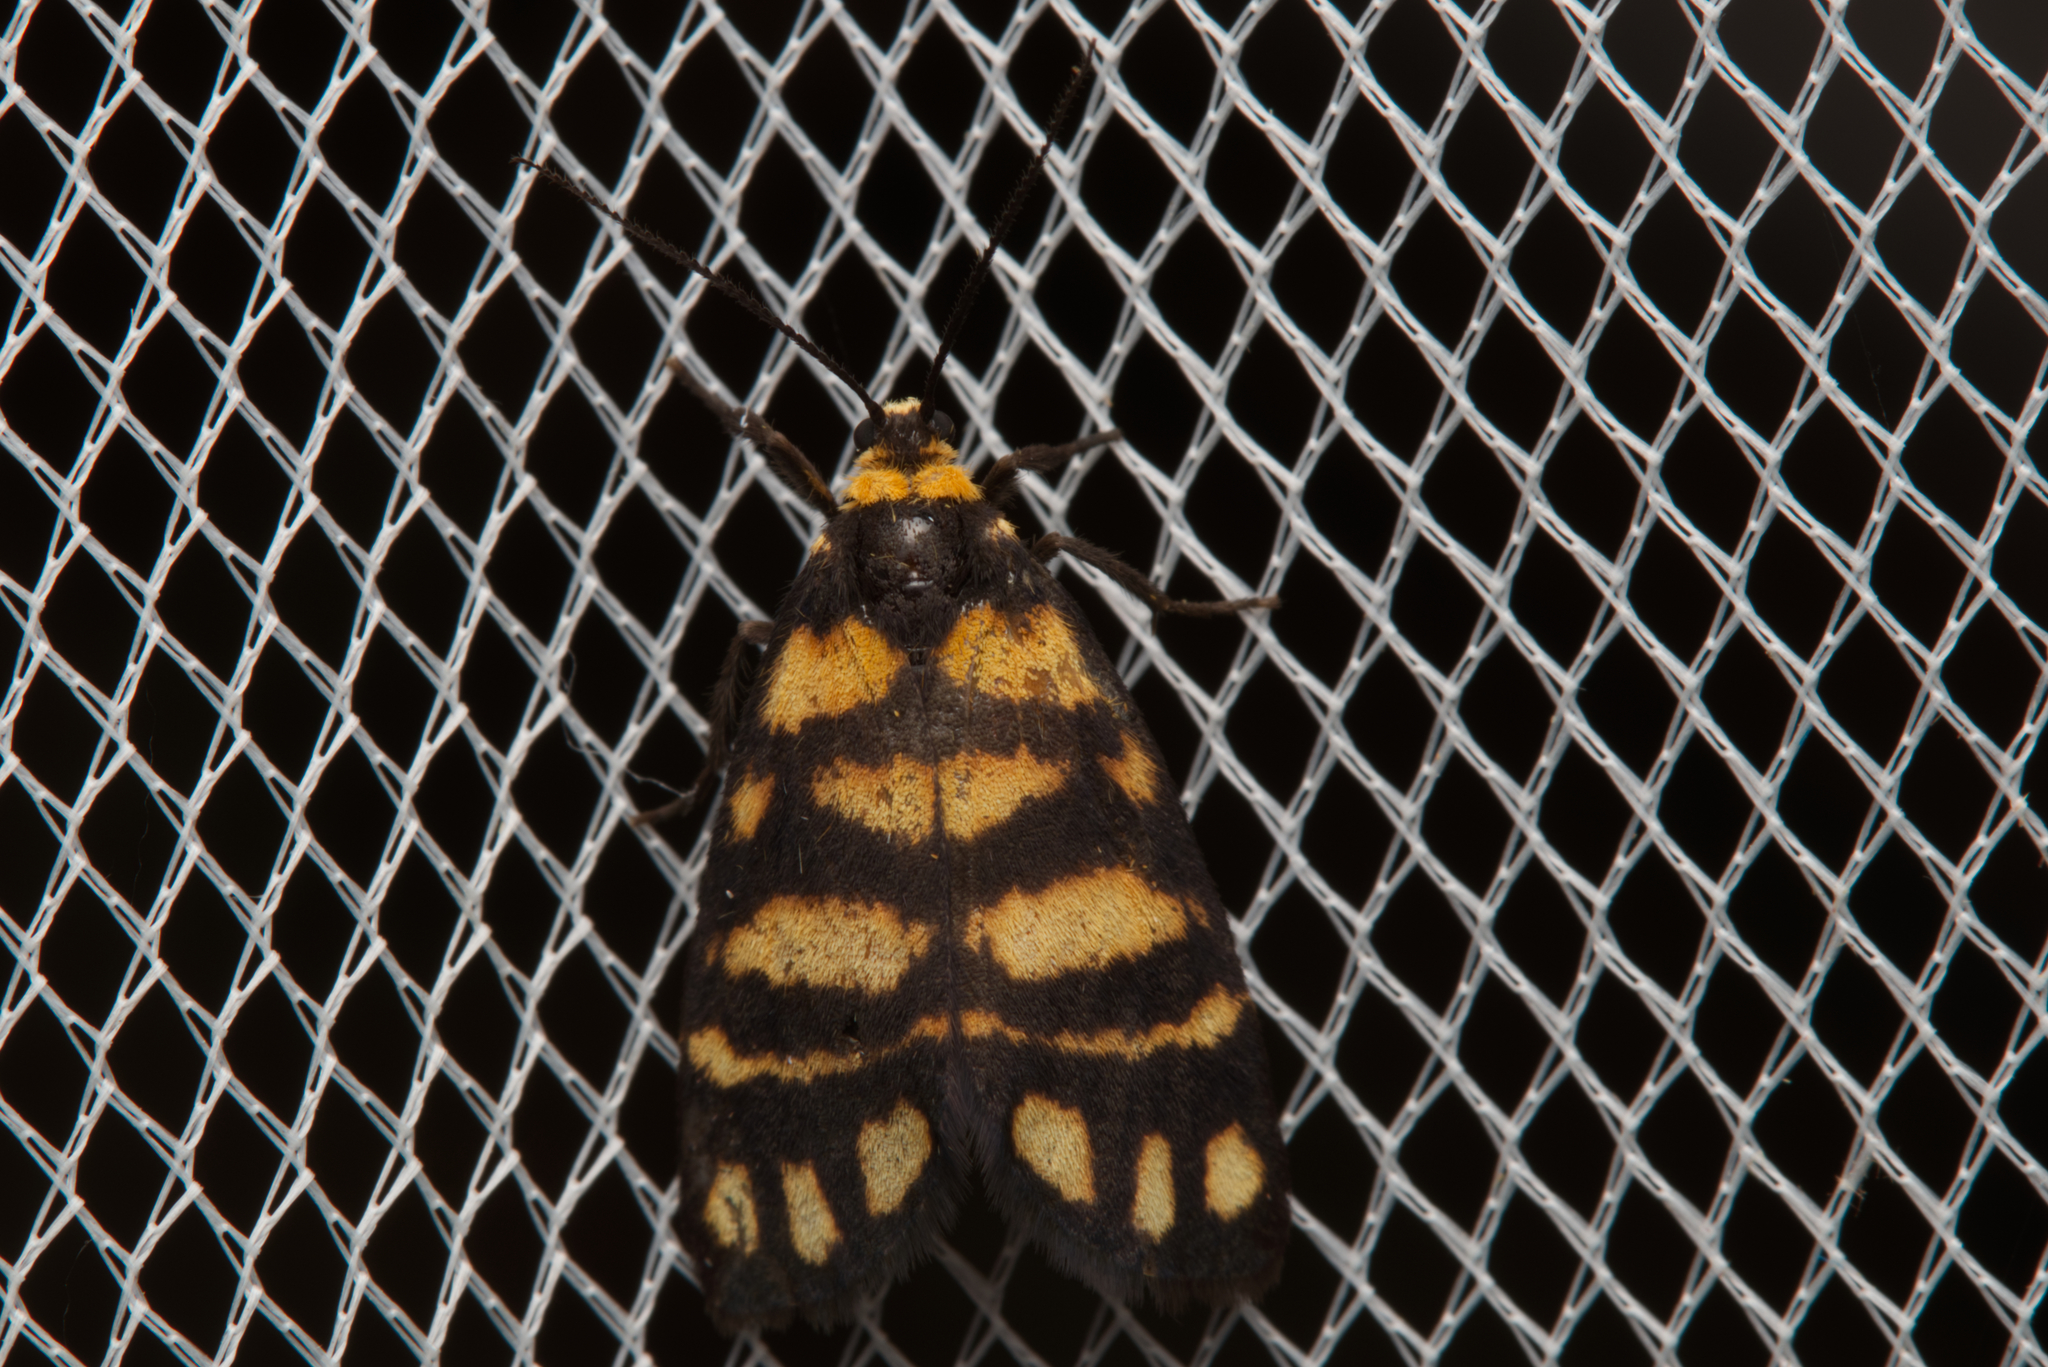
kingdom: Animalia
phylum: Arthropoda
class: Insecta
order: Lepidoptera
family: Erebidae
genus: Asura
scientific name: Asura lydia
